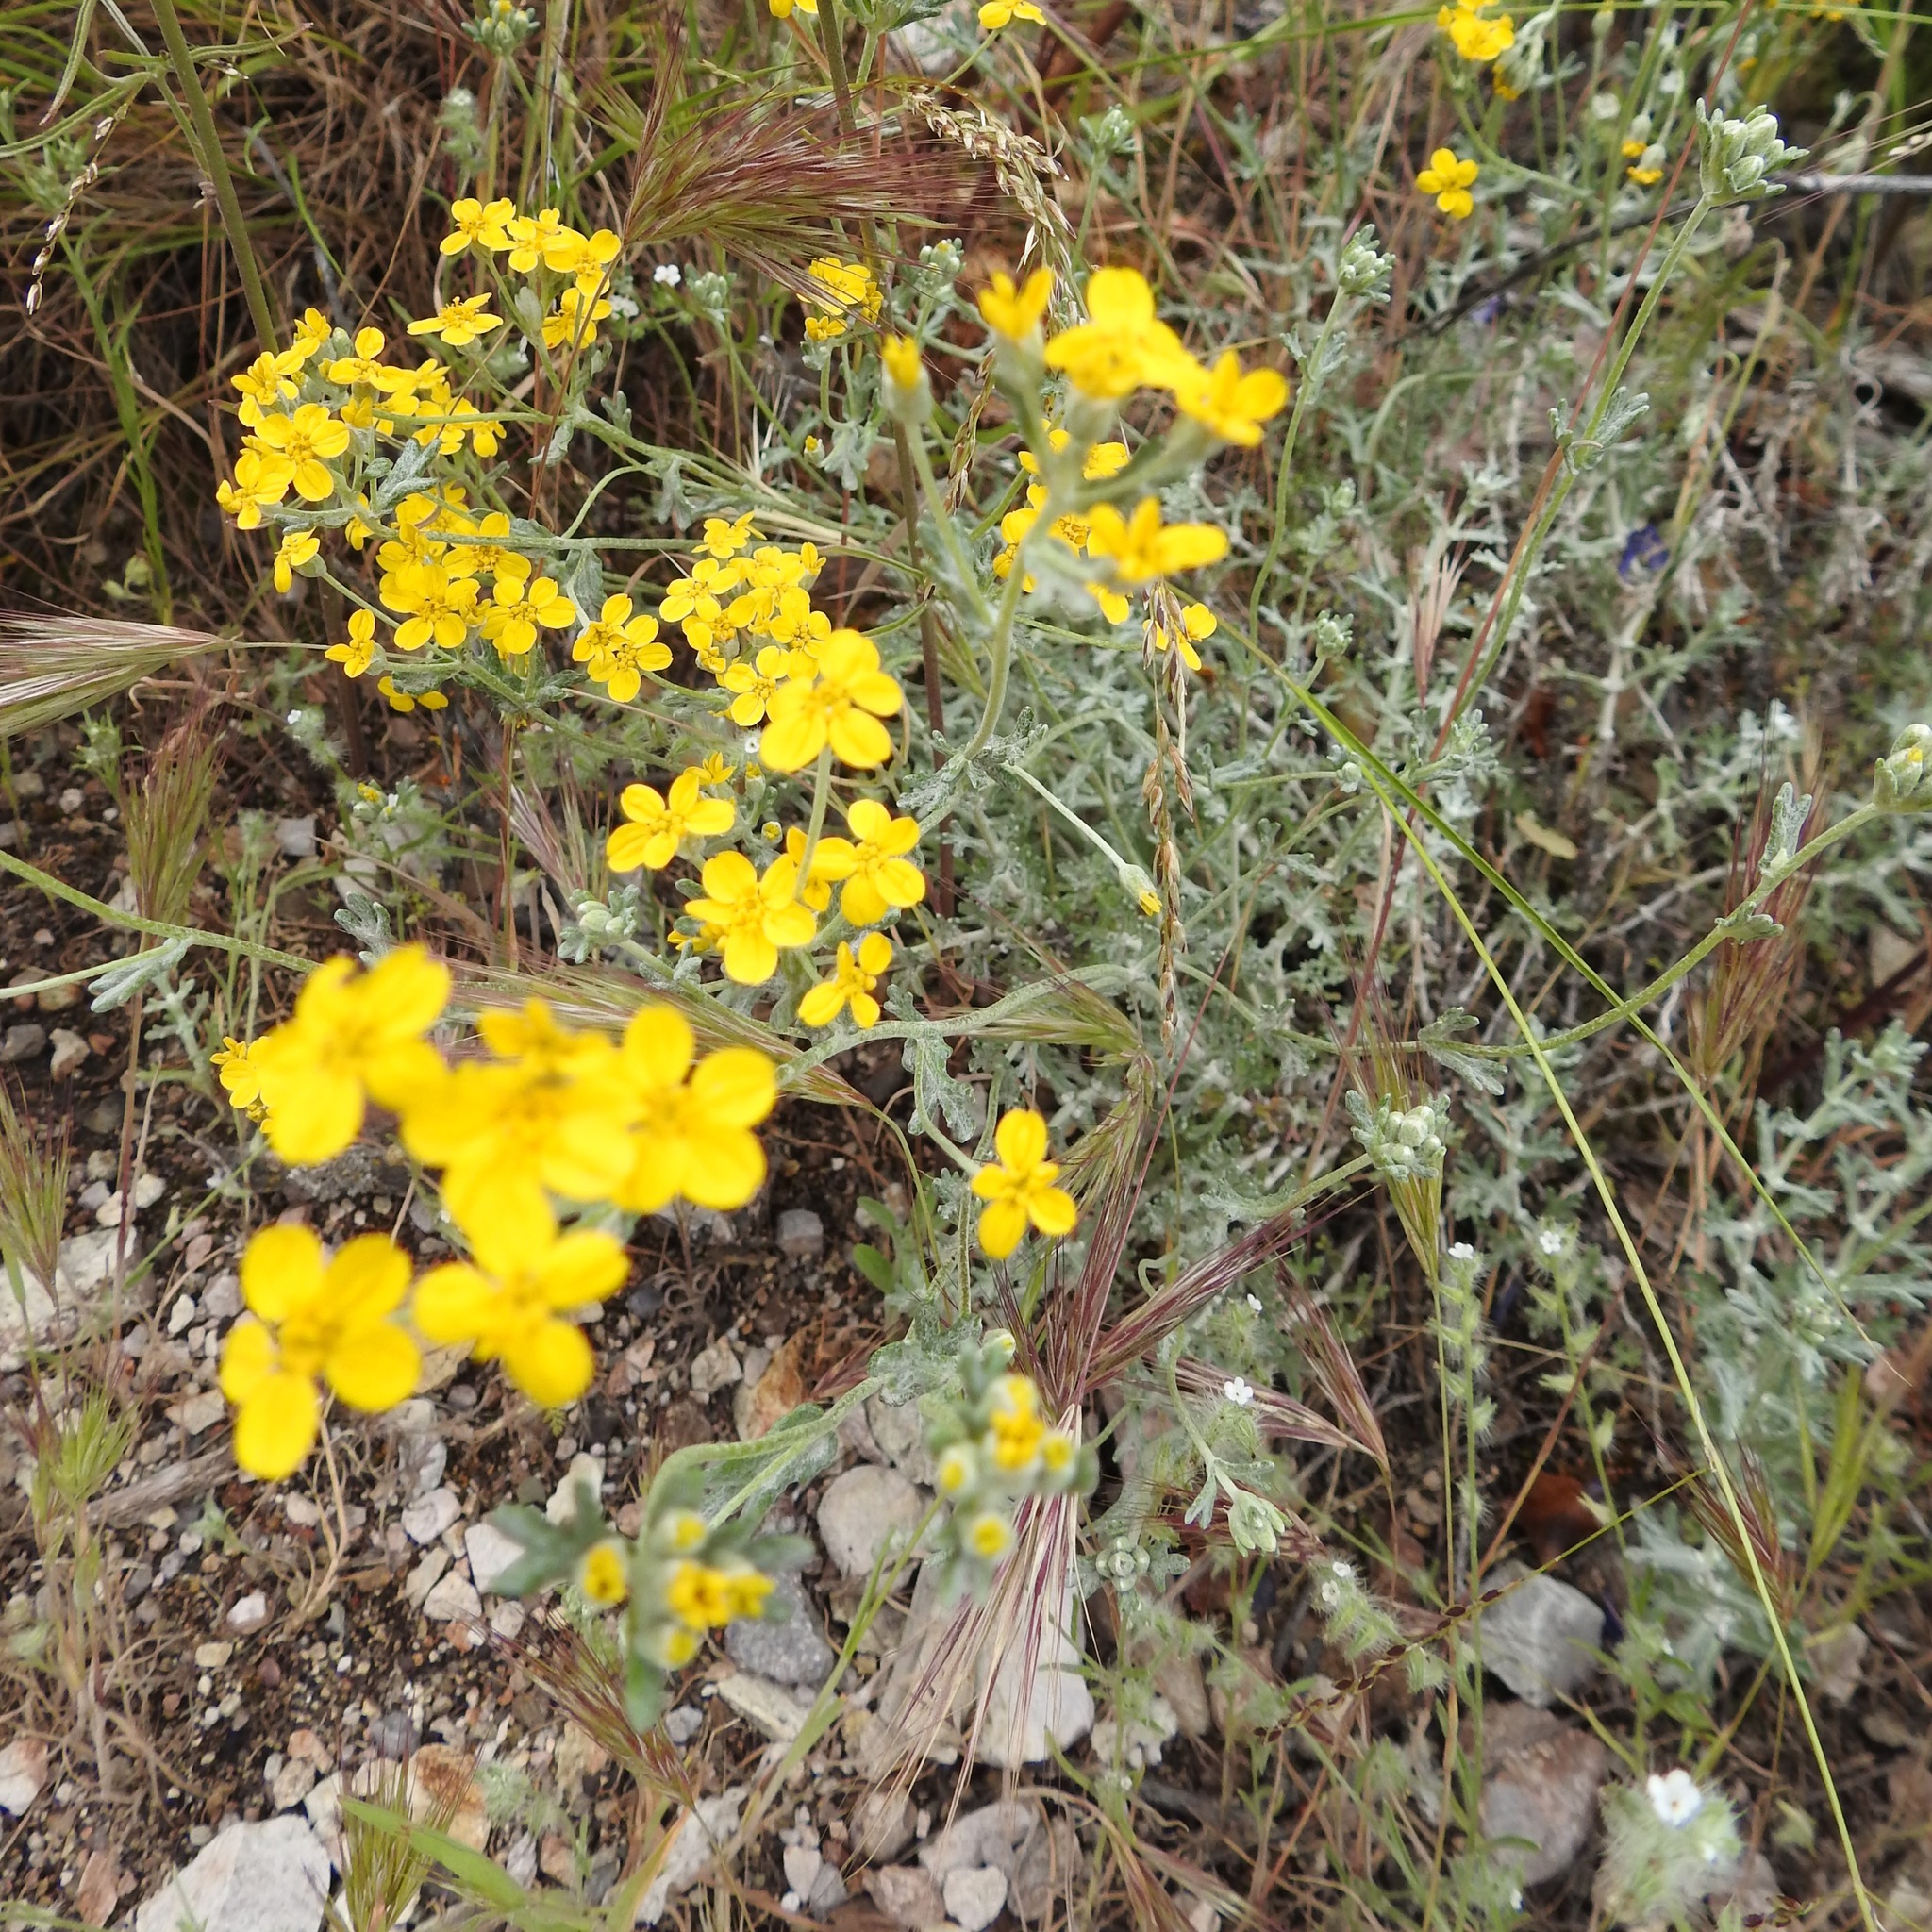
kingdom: Plantae
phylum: Tracheophyta
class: Magnoliopsida
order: Asterales
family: Asteraceae
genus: Eriophyllum
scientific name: Eriophyllum confertiflorum
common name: Golden-yarrow
